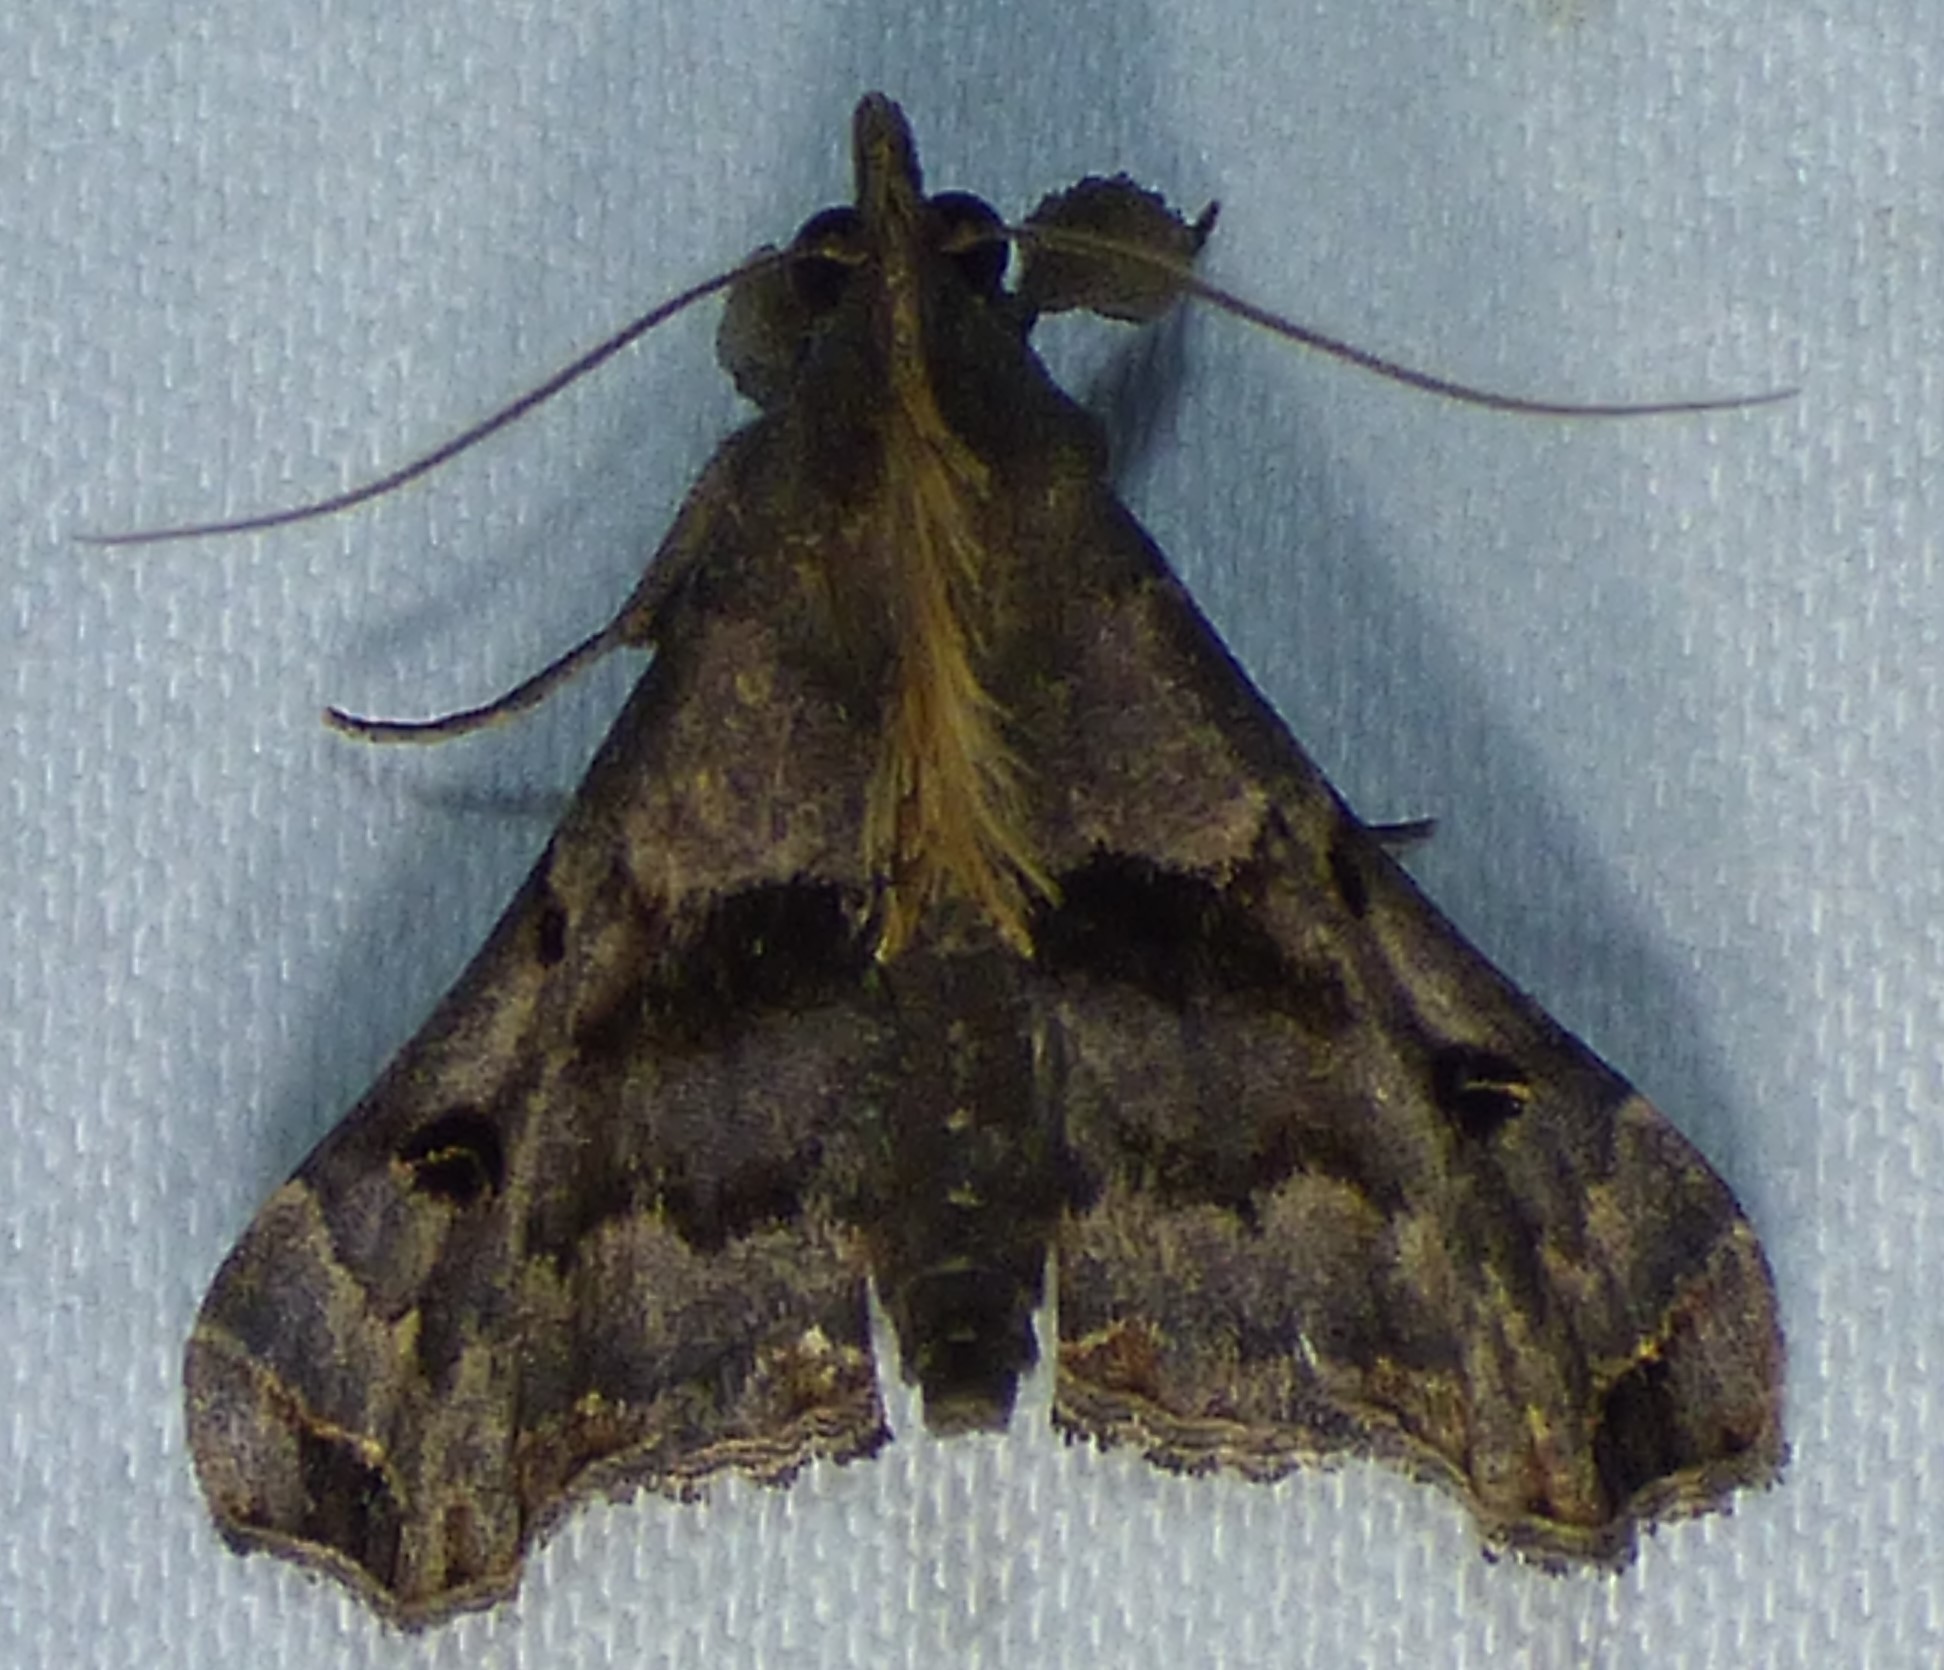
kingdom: Animalia
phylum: Arthropoda
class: Insecta
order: Lepidoptera
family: Erebidae
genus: Palthis
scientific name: Palthis asopialis
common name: Faint-spotted palthis moth
